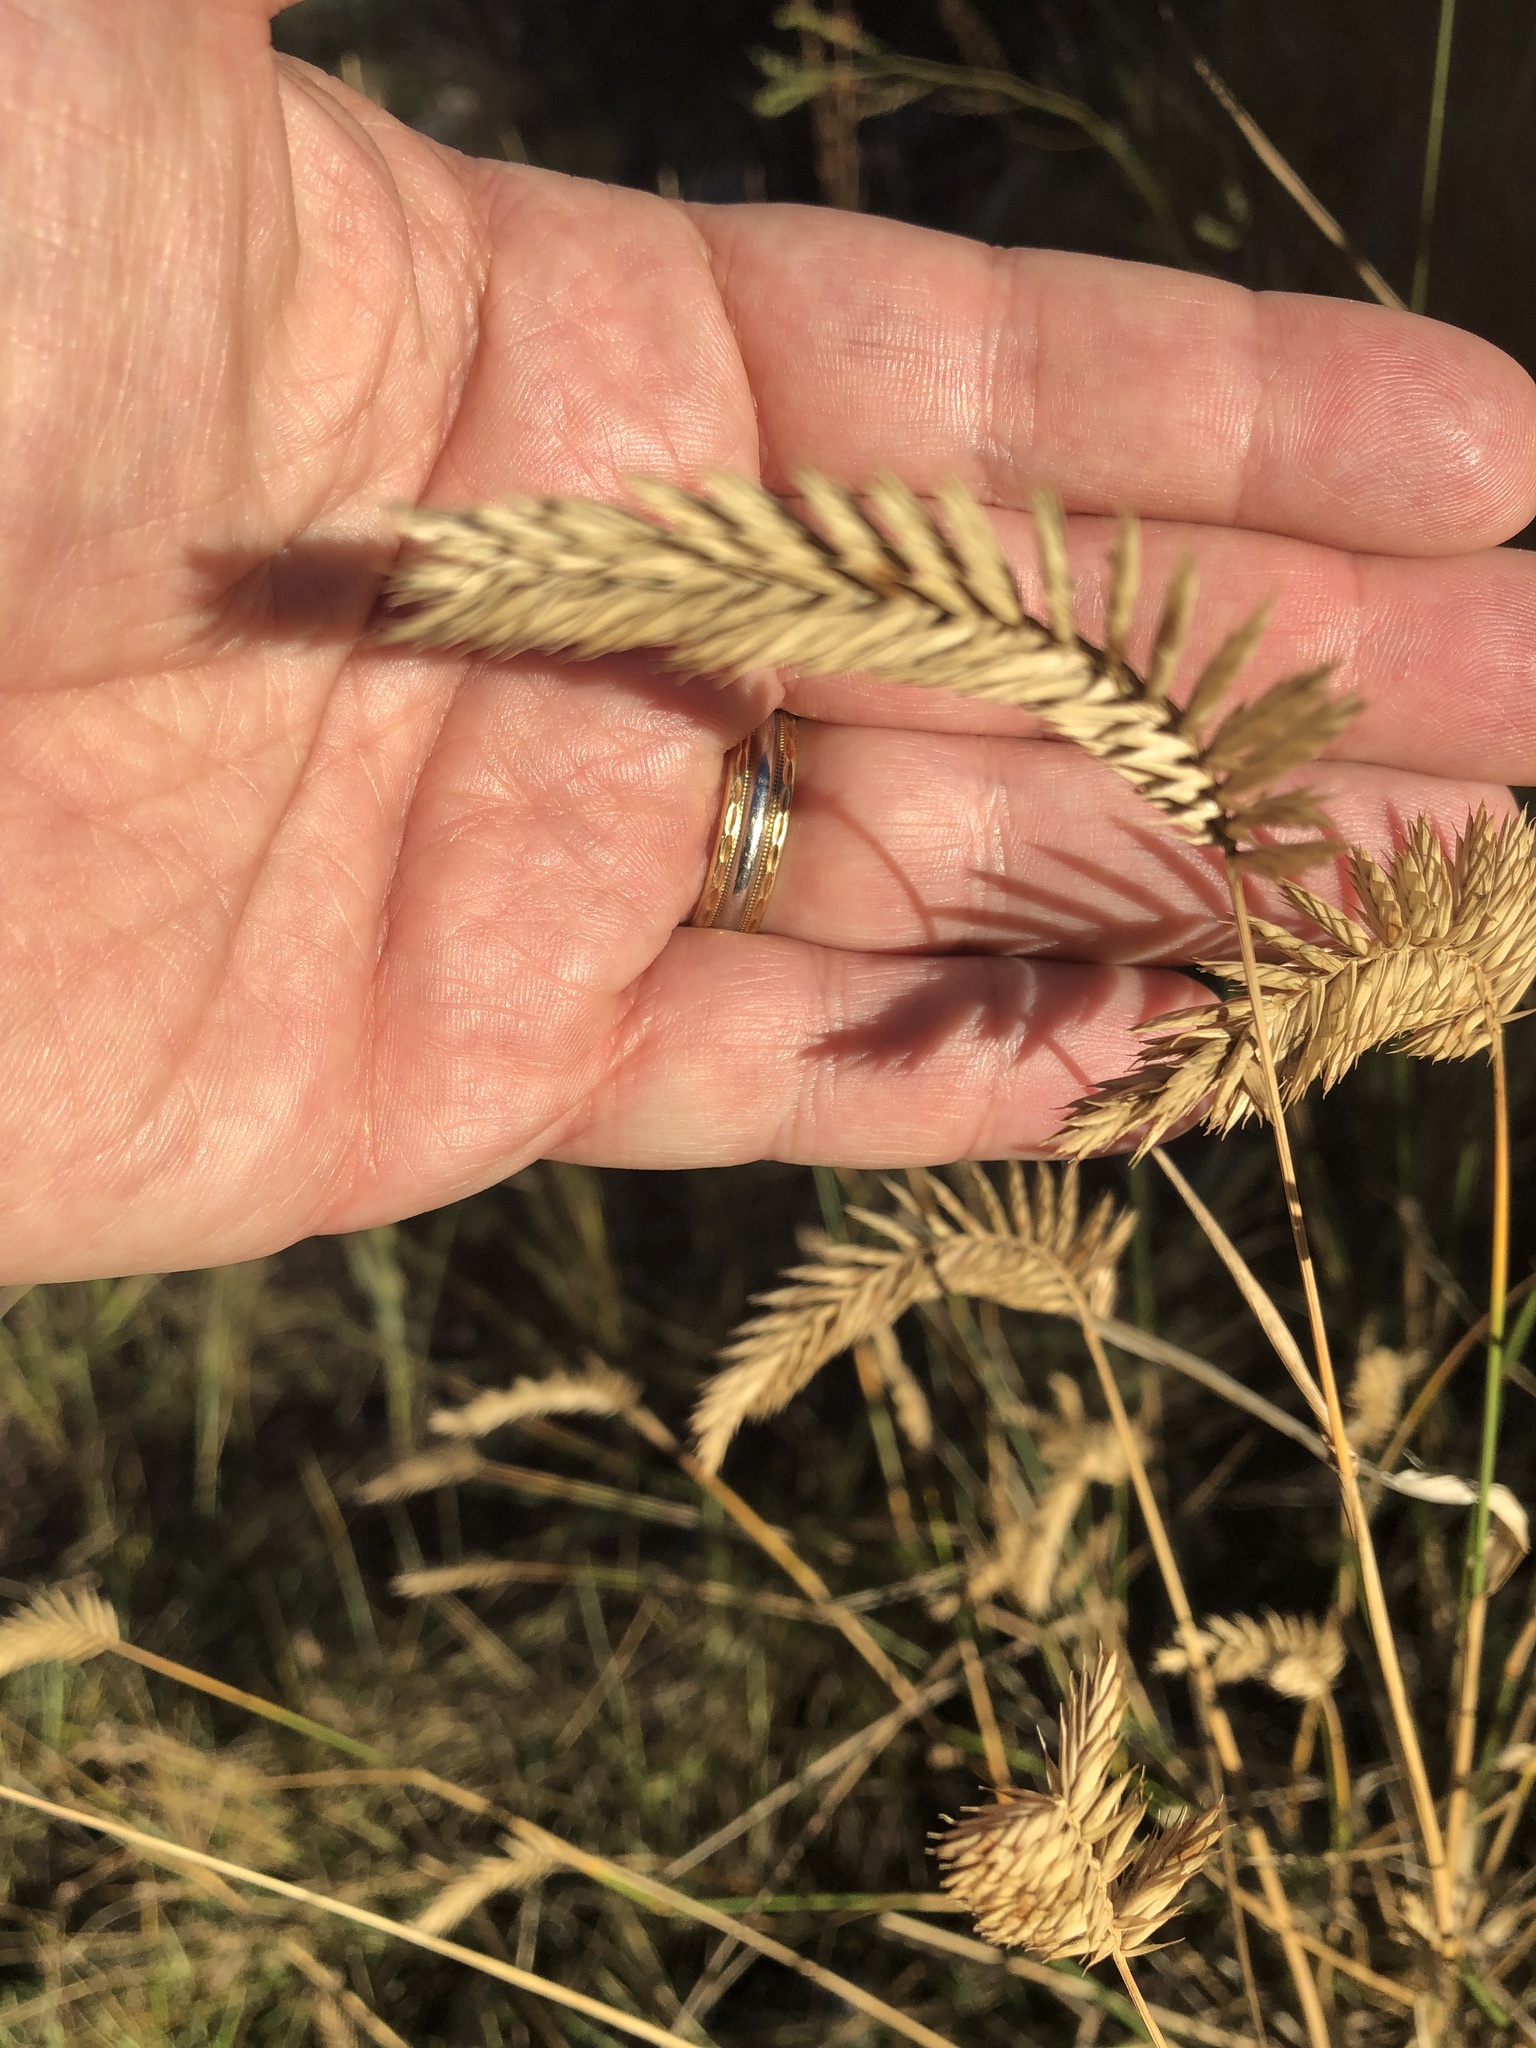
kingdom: Plantae
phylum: Tracheophyta
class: Liliopsida
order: Poales
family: Poaceae
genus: Agropyron
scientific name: Agropyron cristatum
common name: Crested wheatgrass
